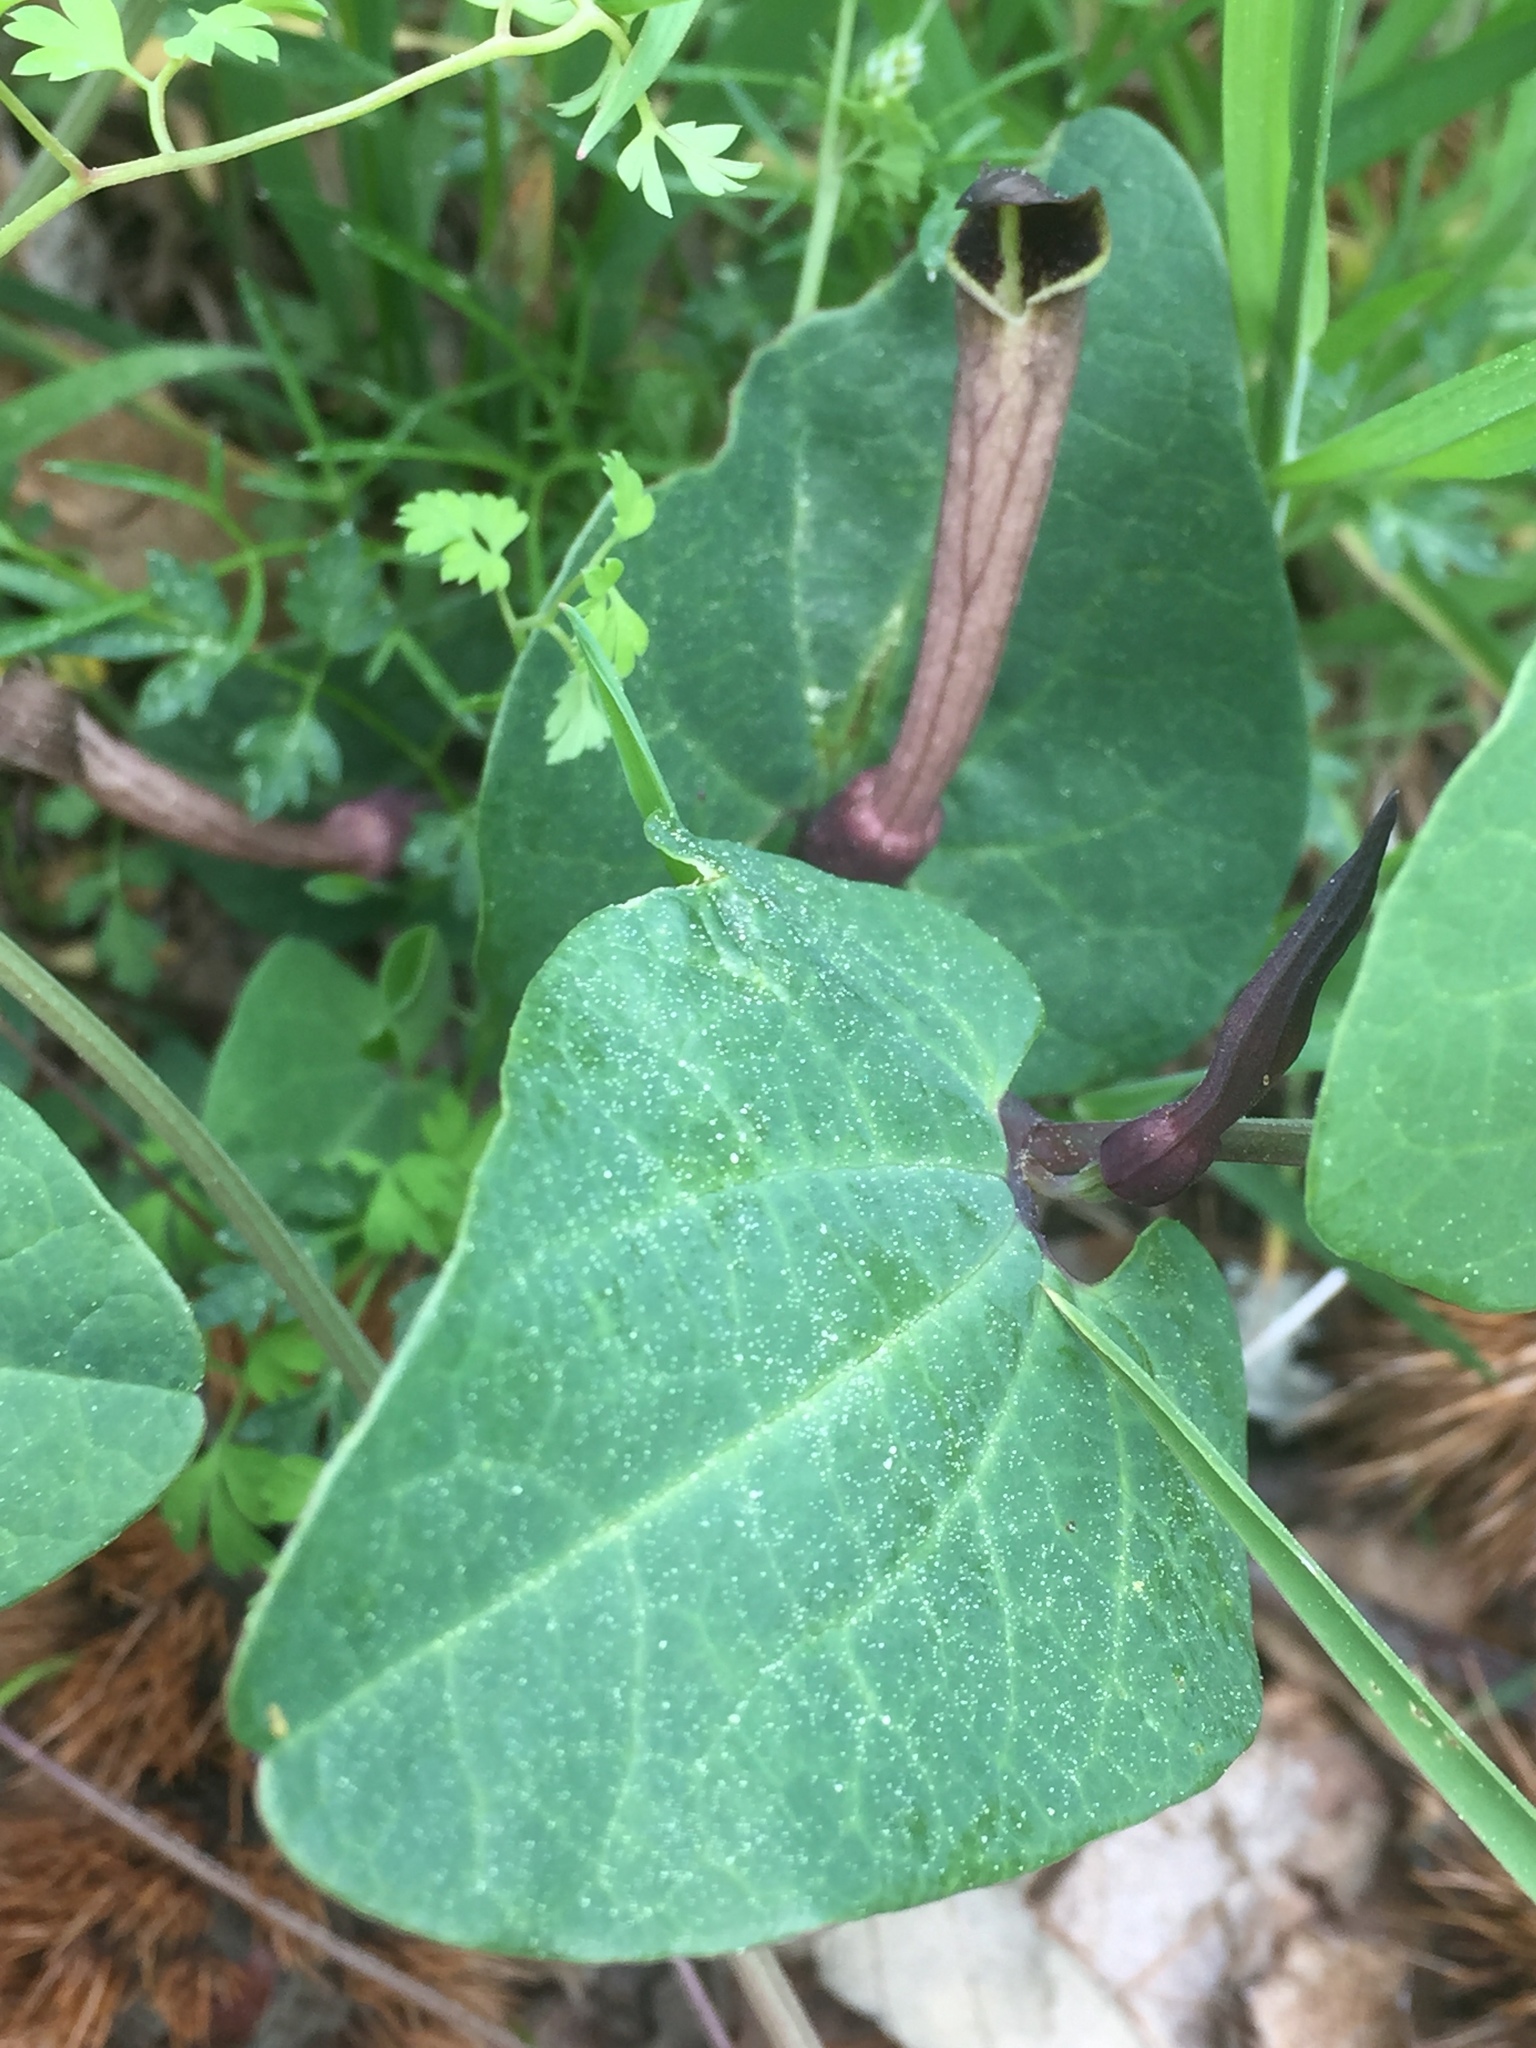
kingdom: Plantae
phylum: Tracheophyta
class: Magnoliopsida
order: Piperales
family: Aristolochiaceae
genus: Aristolochia
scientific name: Aristolochia paucinervis
